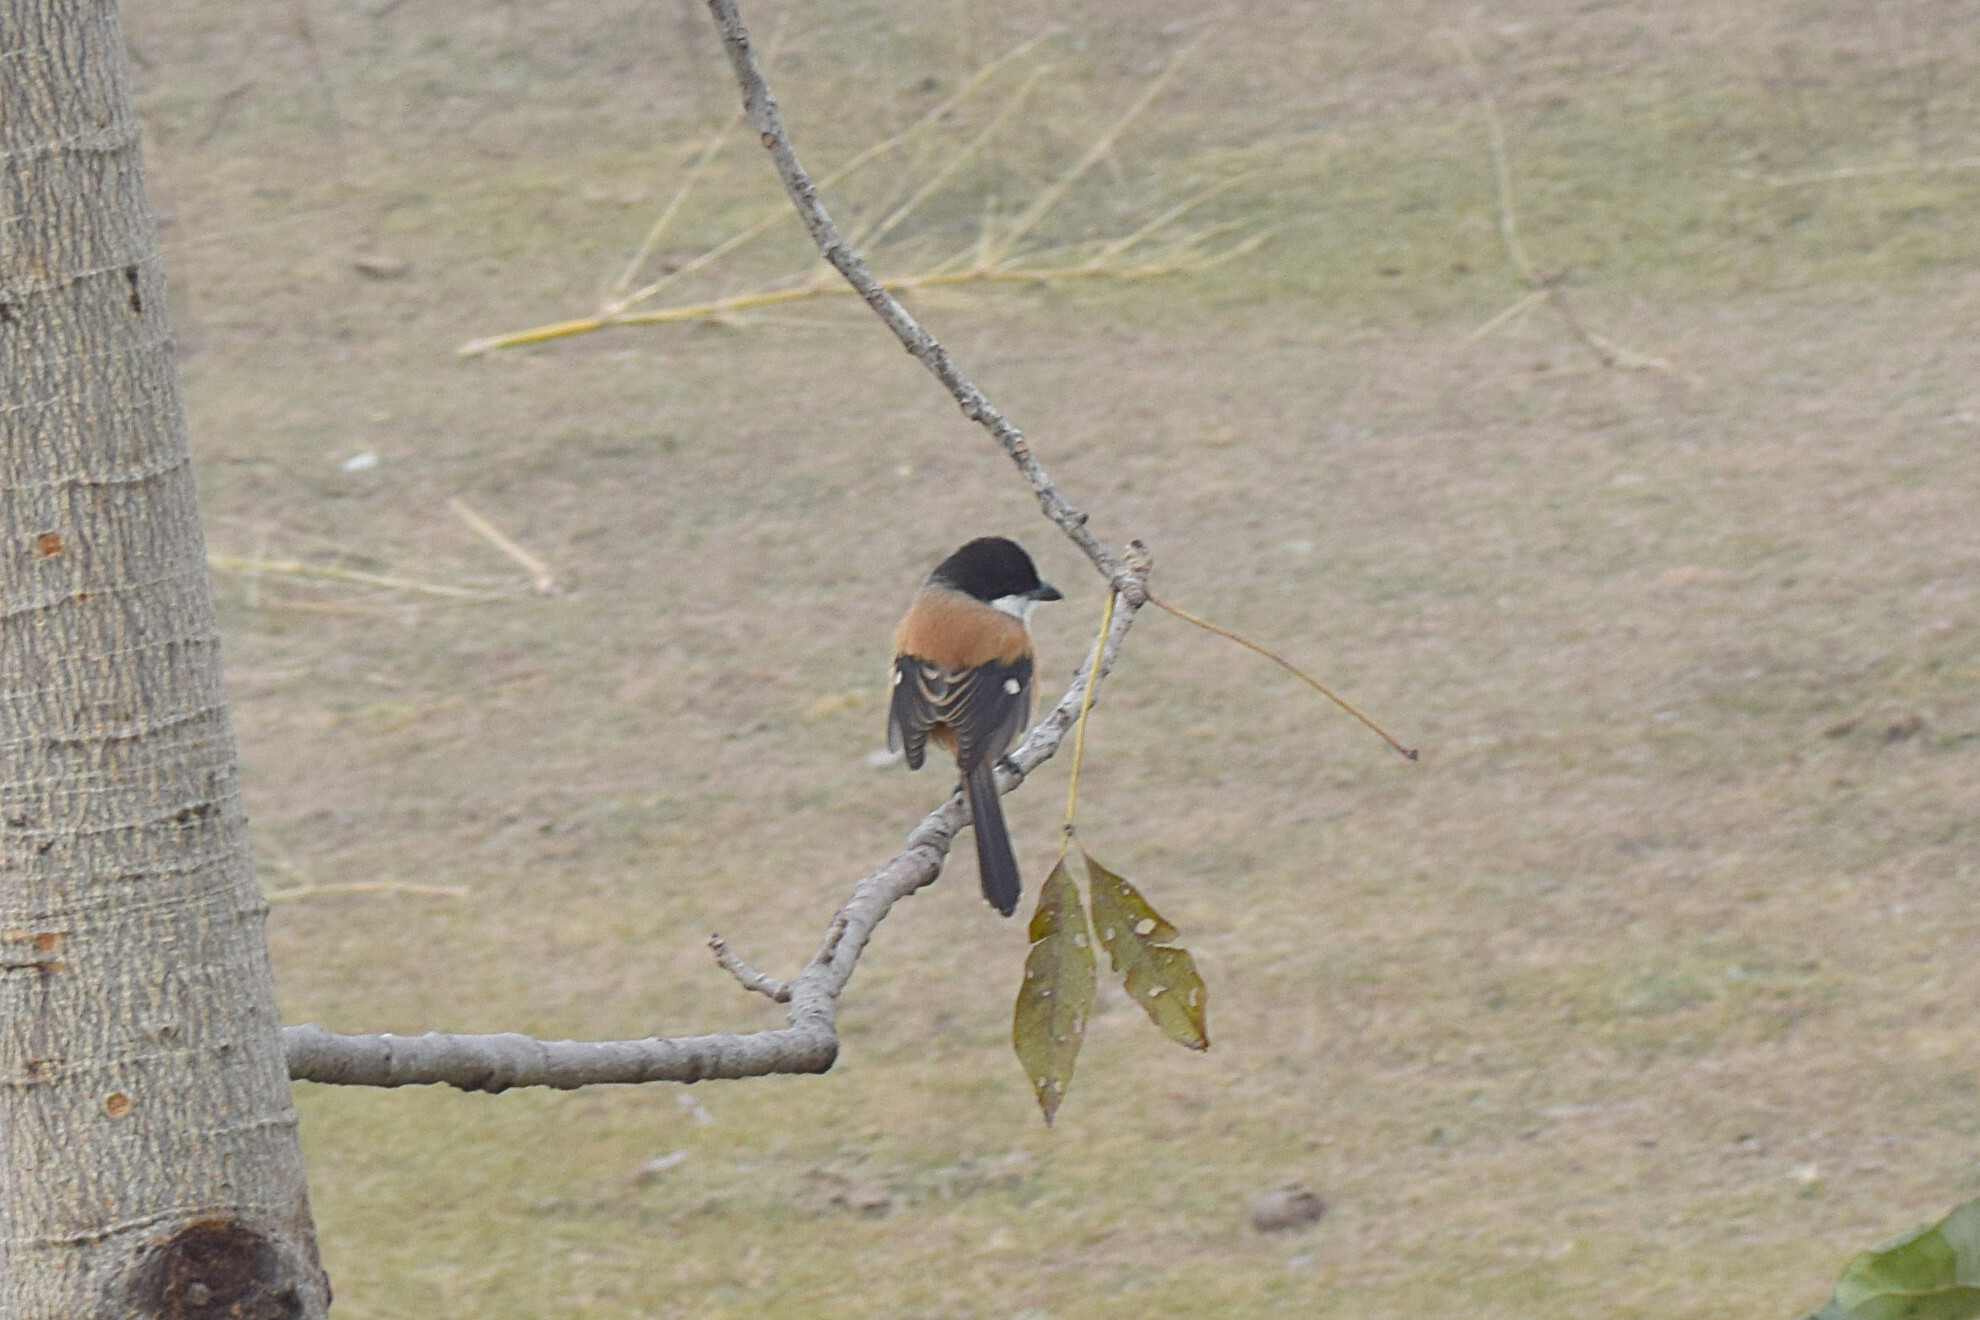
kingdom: Animalia
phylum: Chordata
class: Aves
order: Passeriformes
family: Laniidae
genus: Lanius
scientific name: Lanius schach
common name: Long-tailed shrike
